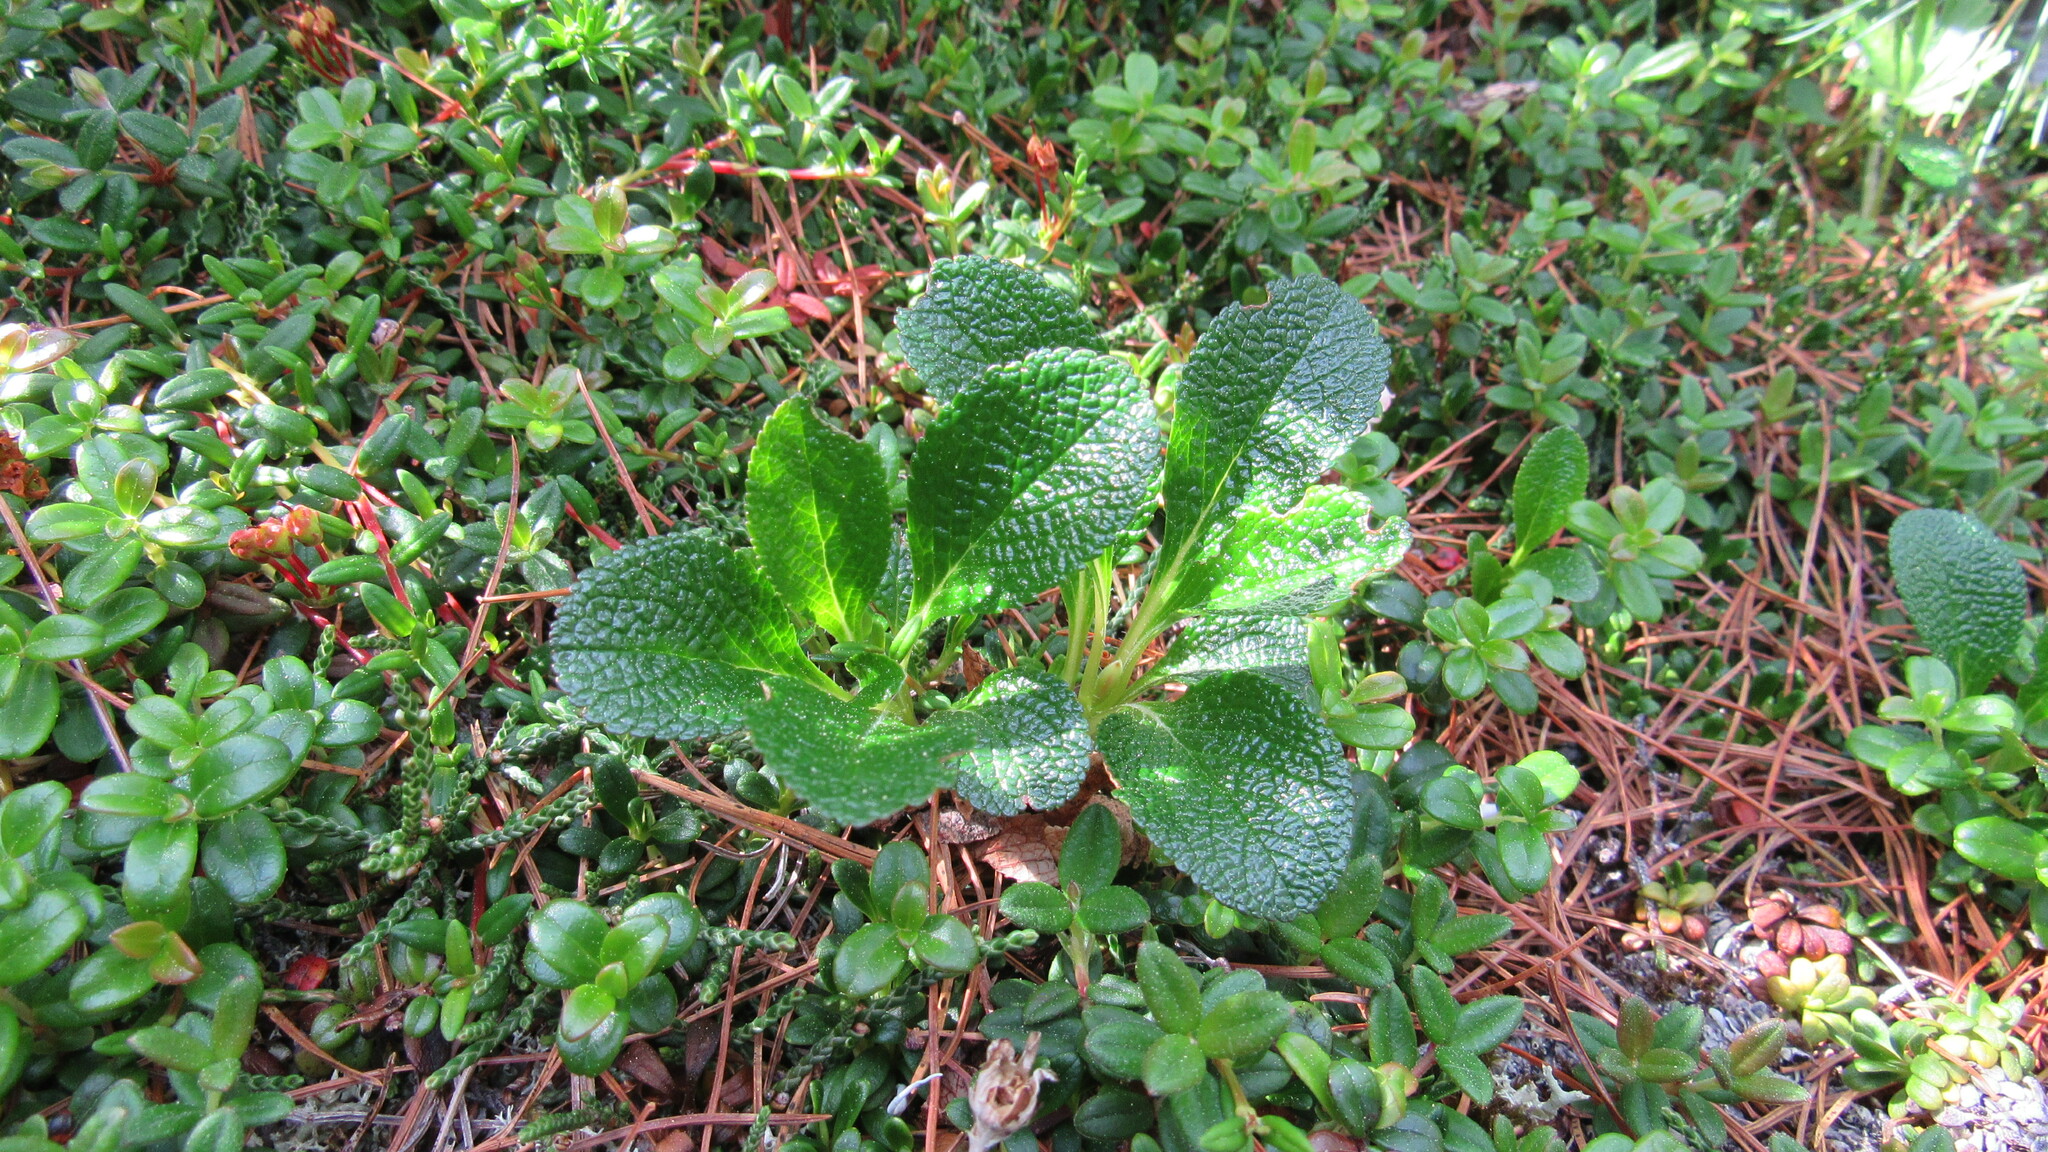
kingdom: Plantae
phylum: Tracheophyta
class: Magnoliopsida
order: Ericales
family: Ericaceae
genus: Arctostaphylos
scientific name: Arctostaphylos alpinus
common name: Alpine bearberry
